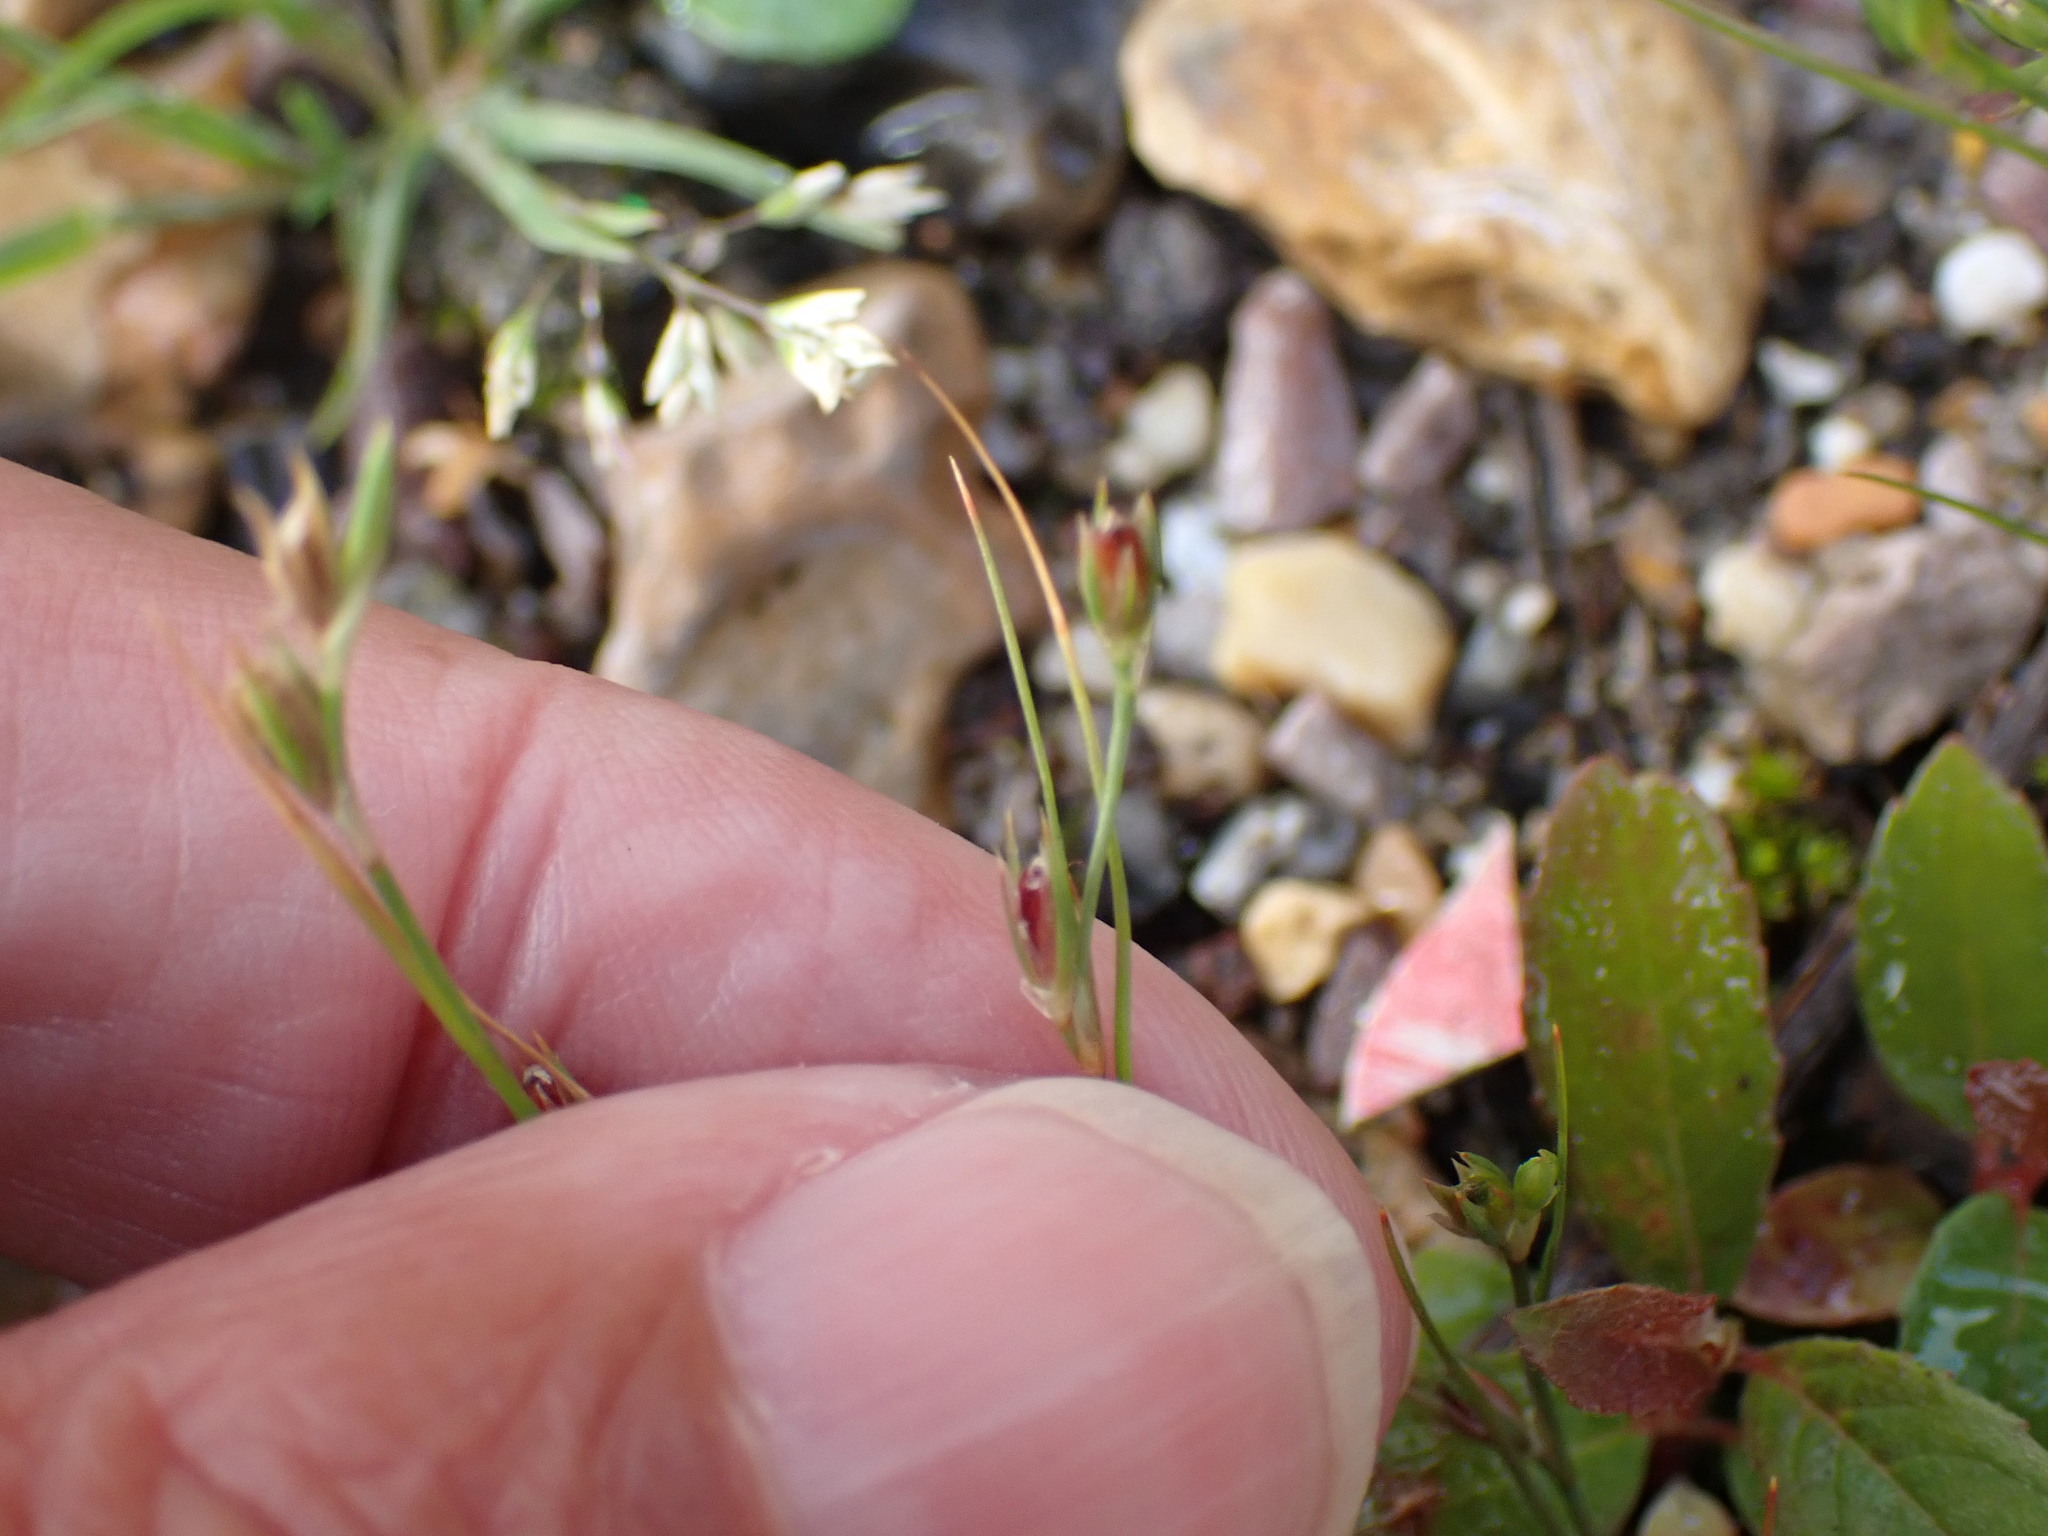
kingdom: Plantae
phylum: Tracheophyta
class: Liliopsida
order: Poales
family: Juncaceae
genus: Juncus
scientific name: Juncus bufonius
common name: Toad rush
